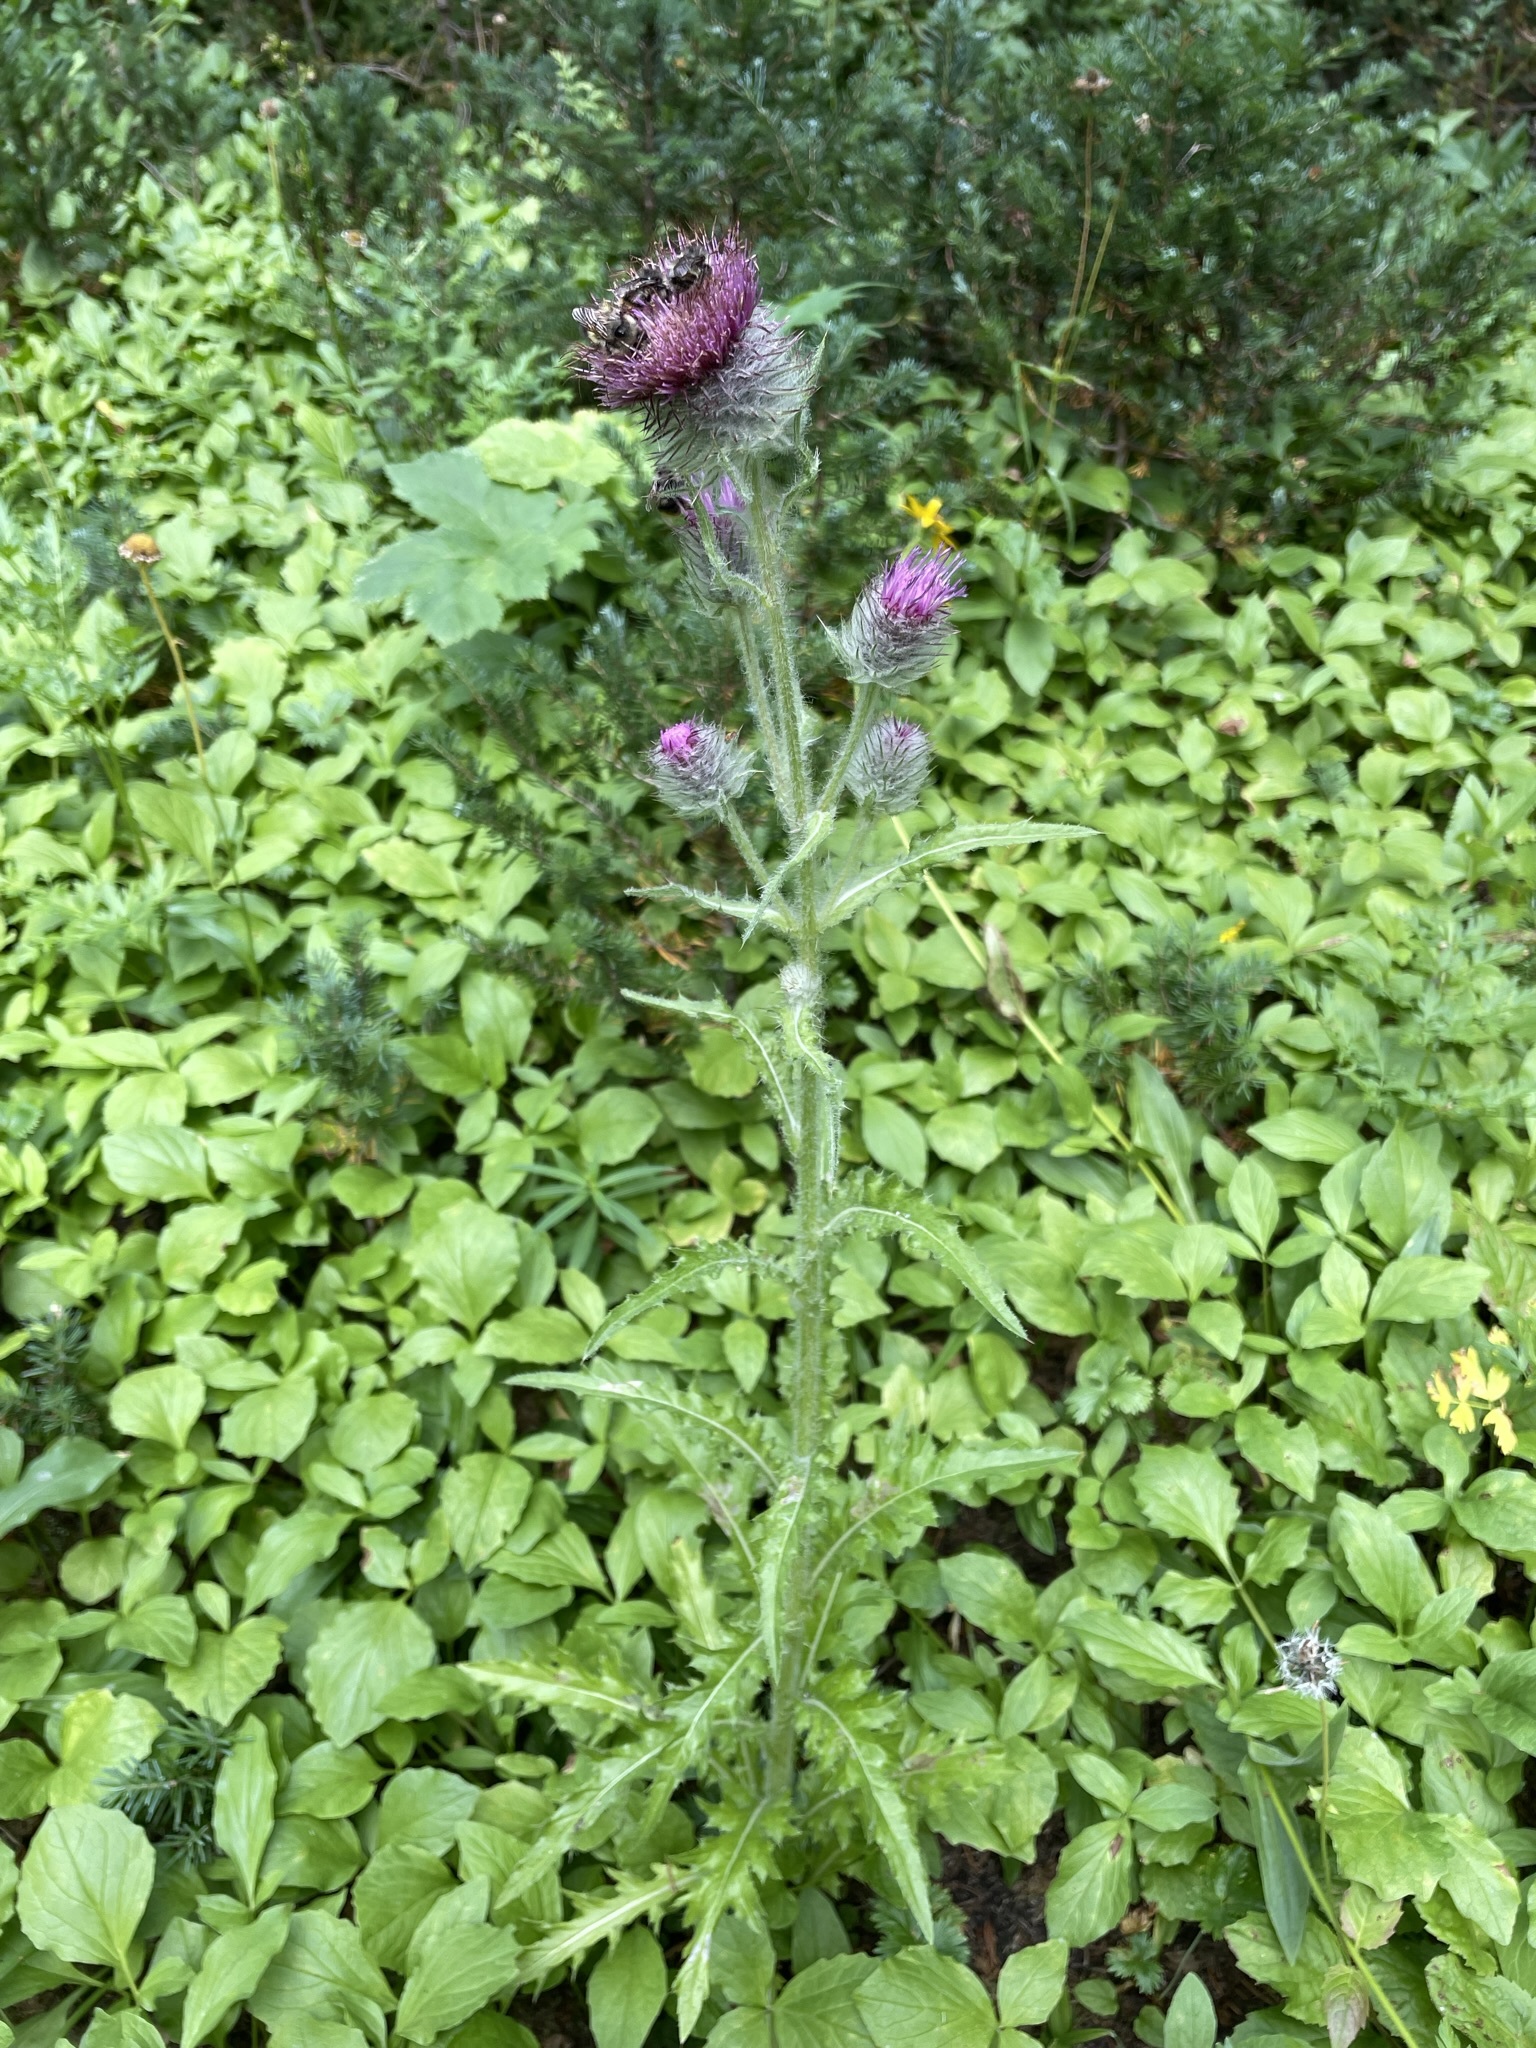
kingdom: Plantae
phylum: Tracheophyta
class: Magnoliopsida
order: Asterales
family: Asteraceae
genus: Cirsium
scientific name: Cirsium edule
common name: Indian thistle
